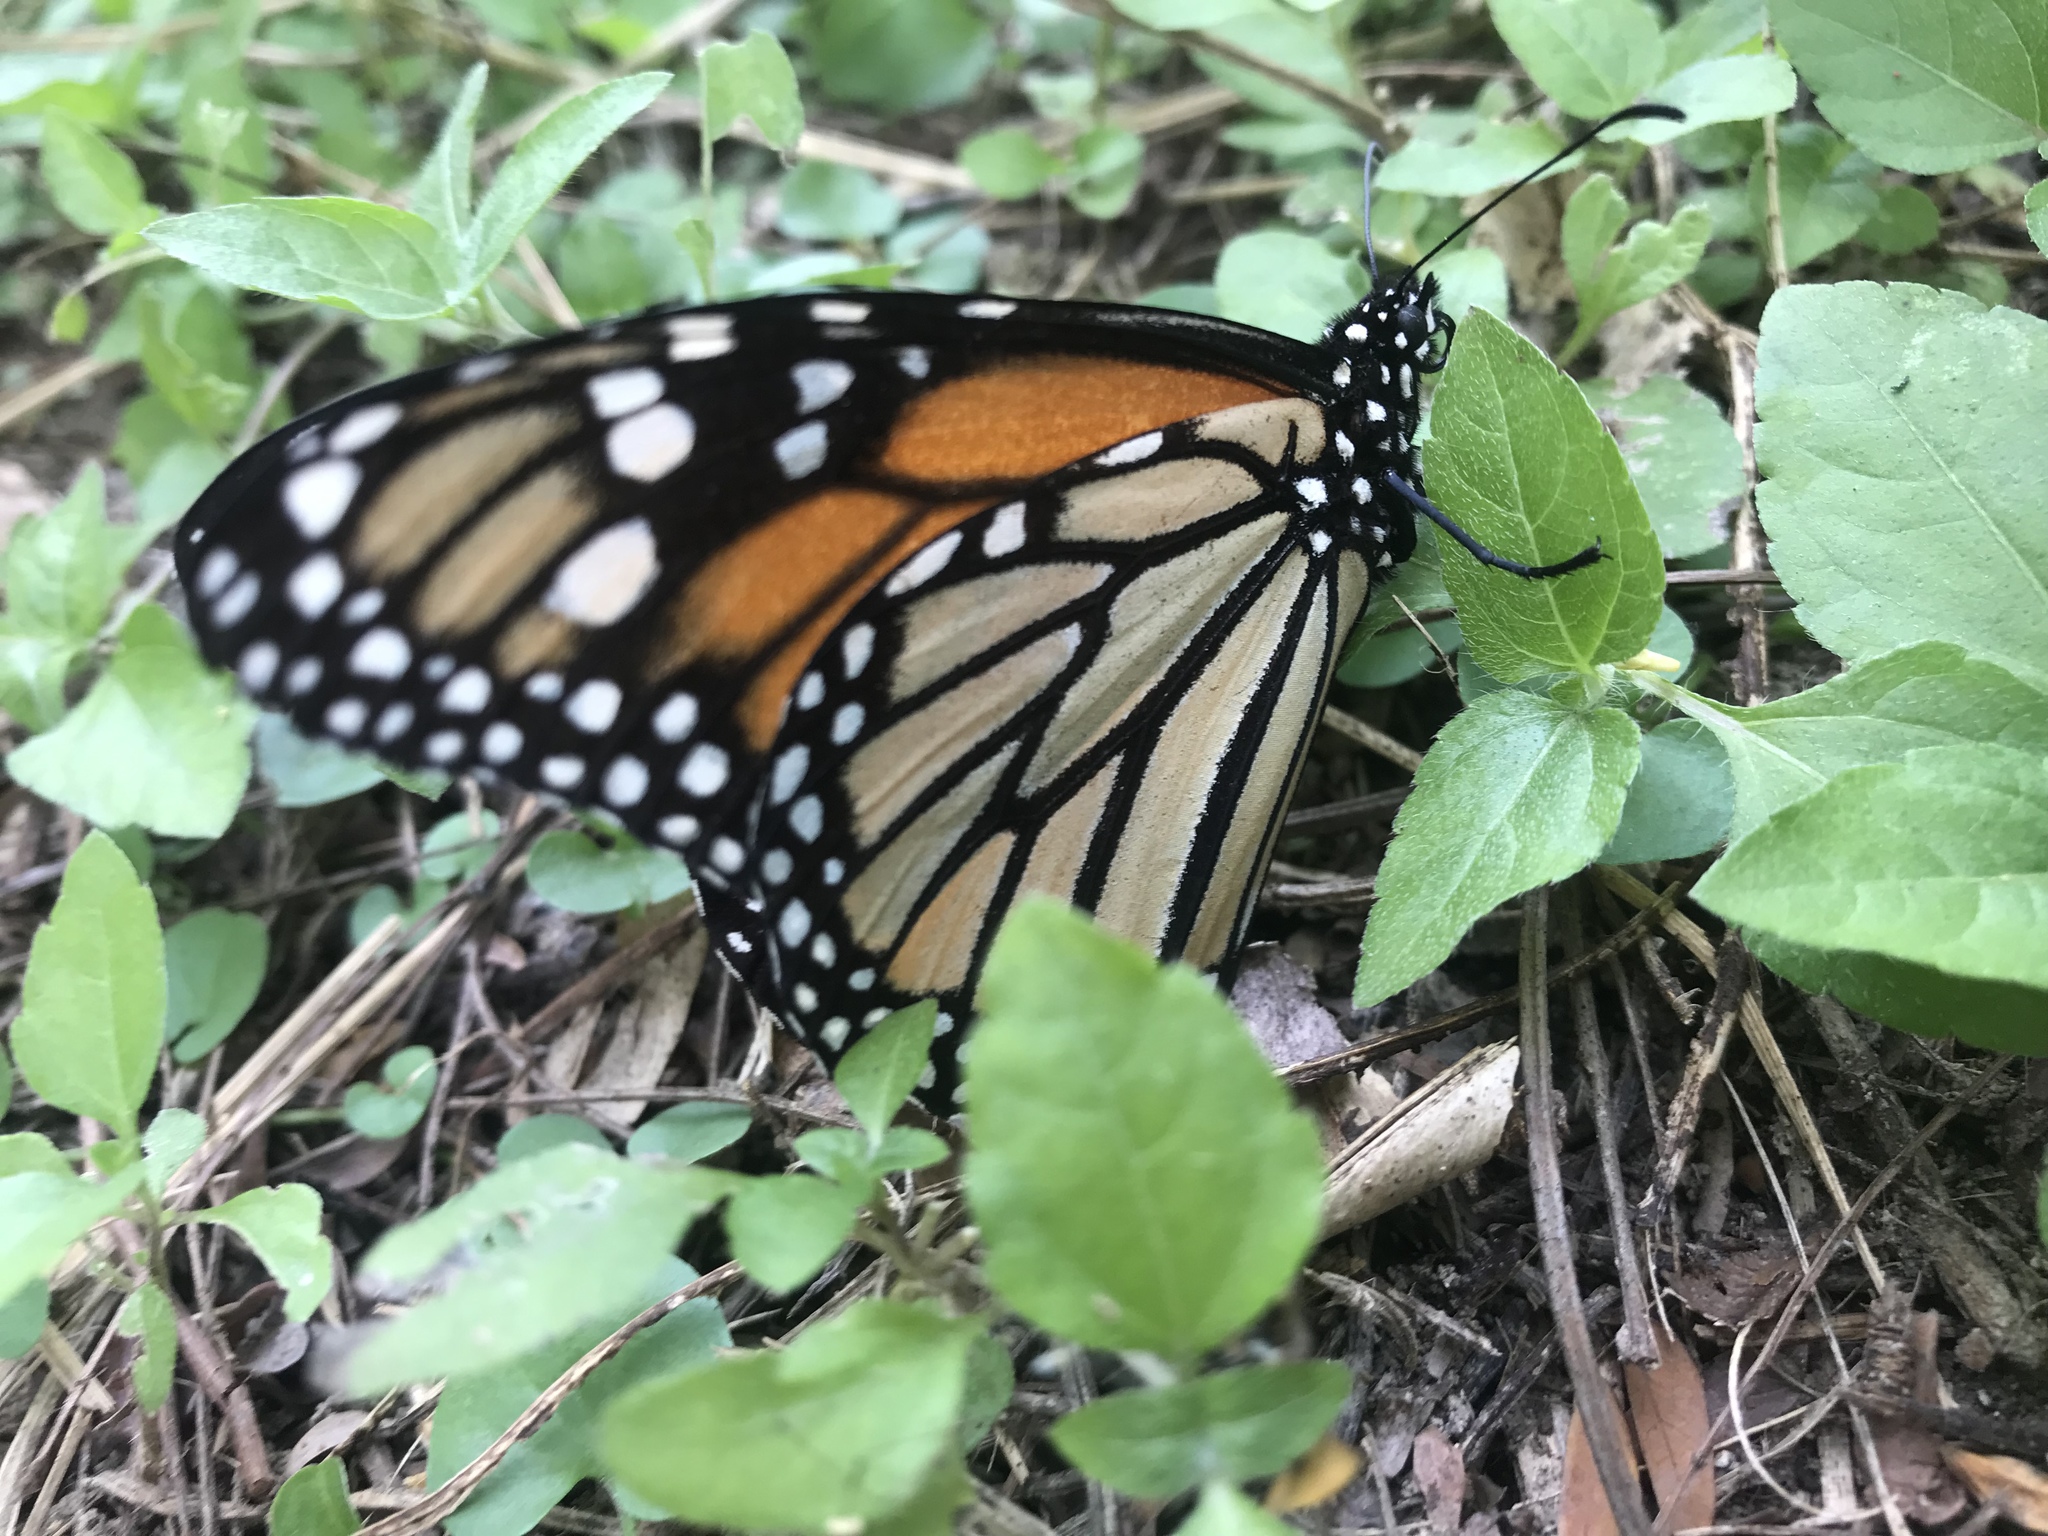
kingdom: Animalia
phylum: Arthropoda
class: Insecta
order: Lepidoptera
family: Nymphalidae
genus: Danaus
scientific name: Danaus plexippus
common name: Monarch
